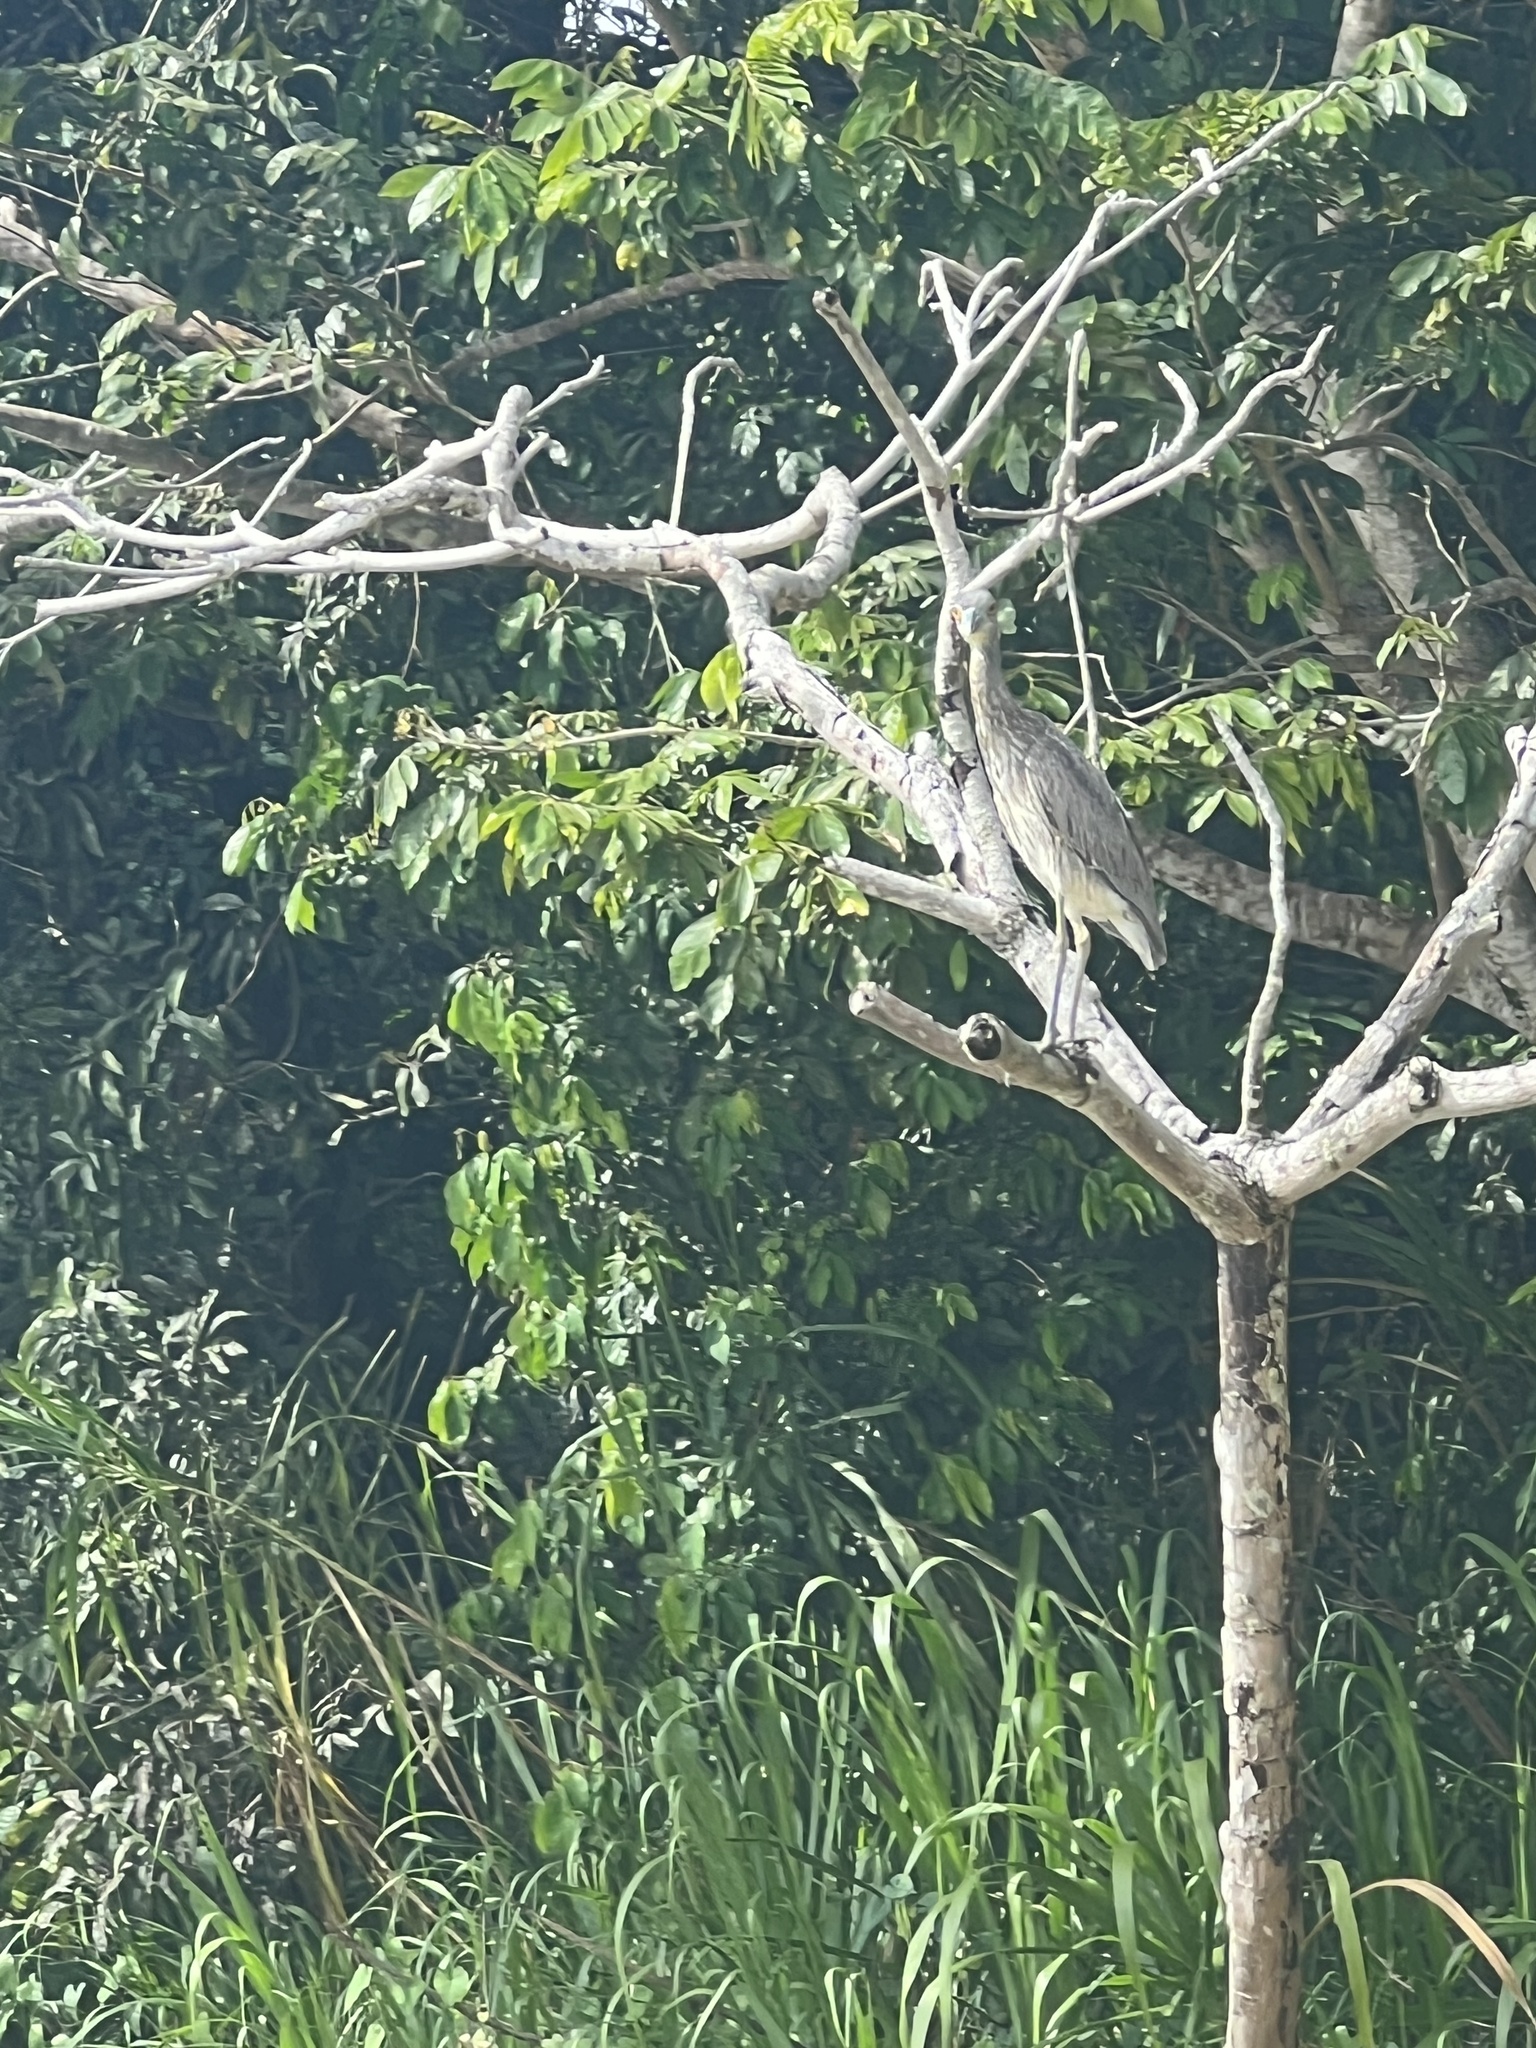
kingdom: Animalia
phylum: Chordata
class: Aves
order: Pelecaniformes
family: Ardeidae
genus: Nyctanassa
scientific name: Nyctanassa violacea
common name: Yellow-crowned night heron
